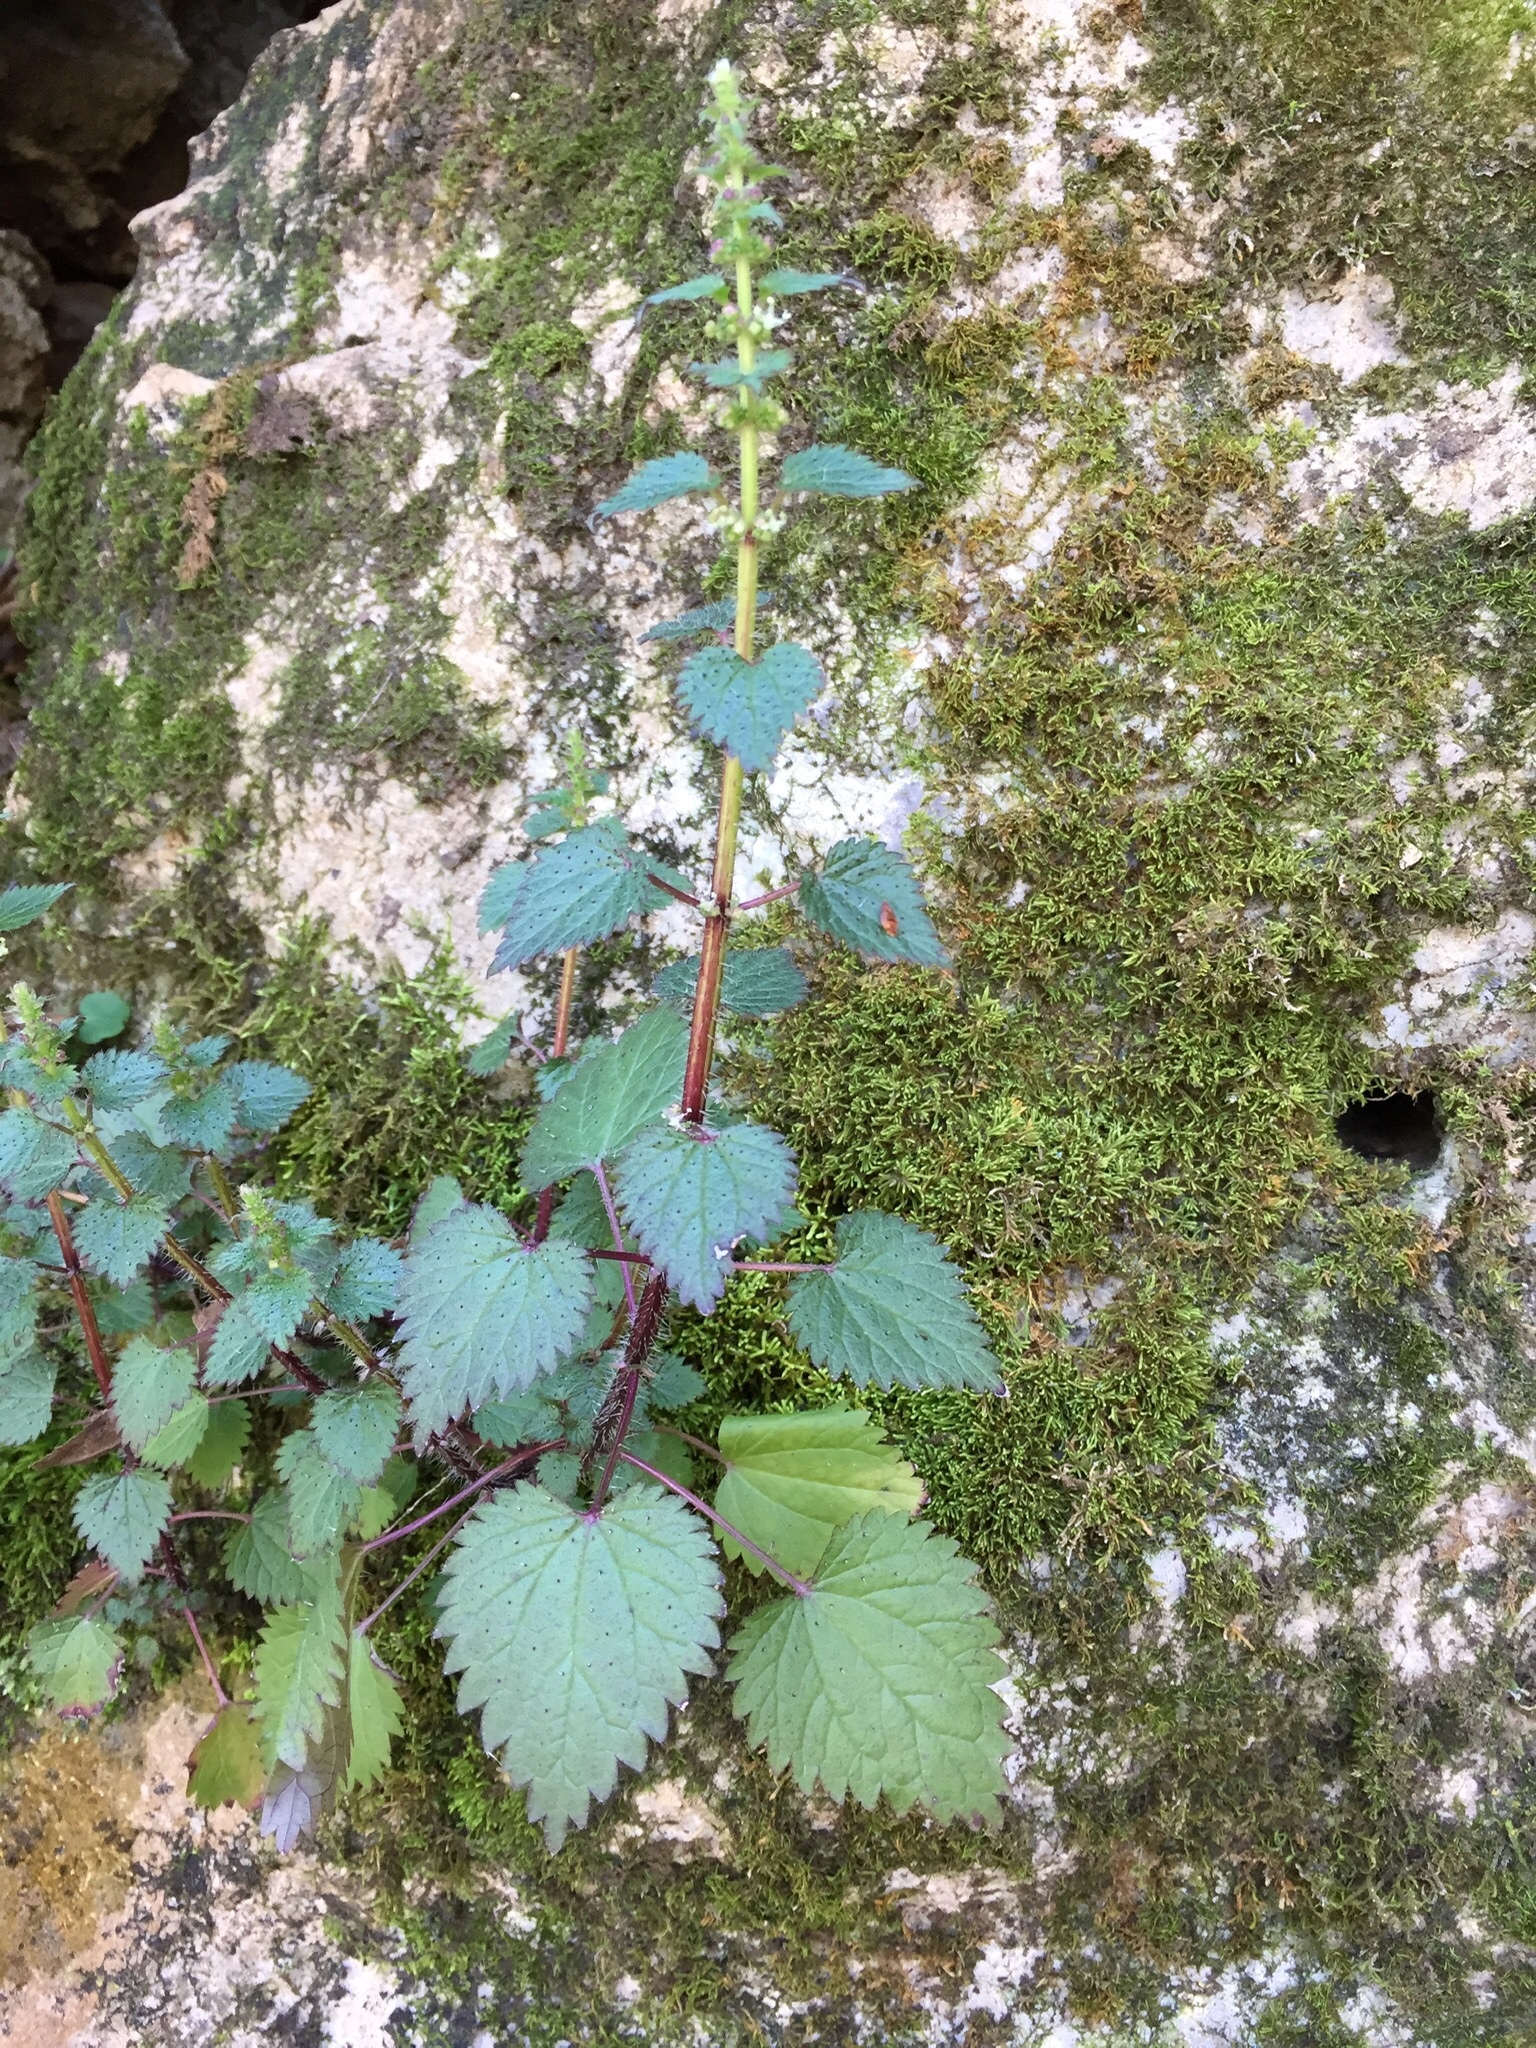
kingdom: Plantae
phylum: Tracheophyta
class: Magnoliopsida
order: Rosales
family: Urticaceae
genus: Urtica
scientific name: Urtica chamaedryoides
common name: Heart-leaf nettle
